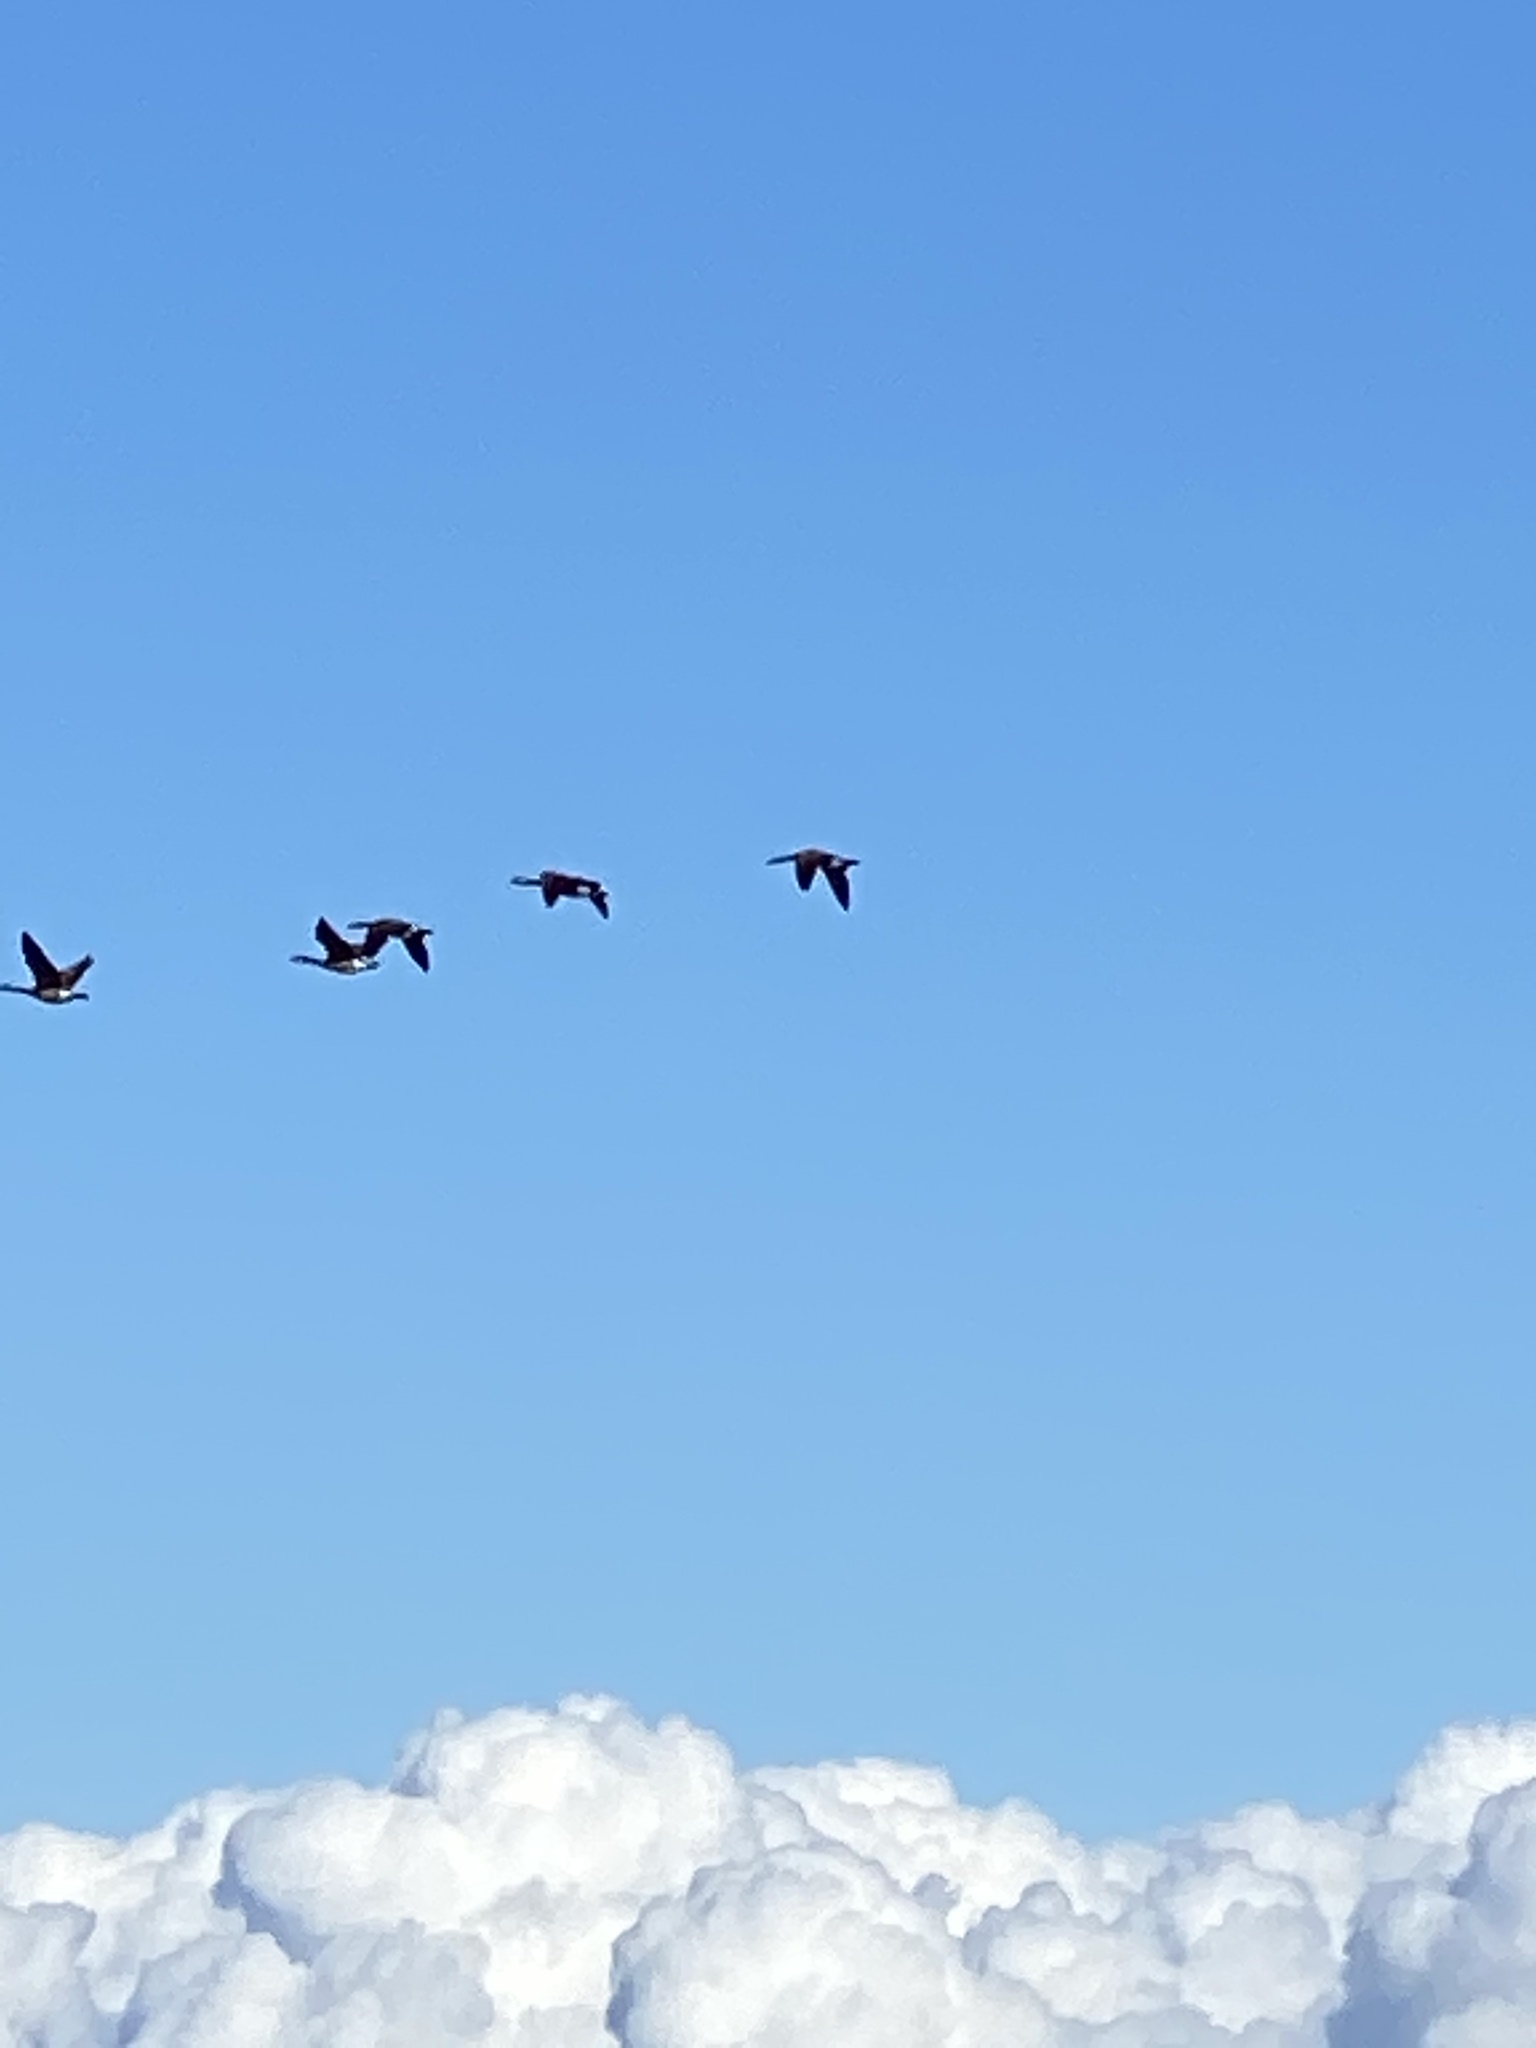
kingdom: Animalia
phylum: Chordata
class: Aves
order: Anseriformes
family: Anatidae
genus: Branta
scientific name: Branta canadensis
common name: Canada goose
